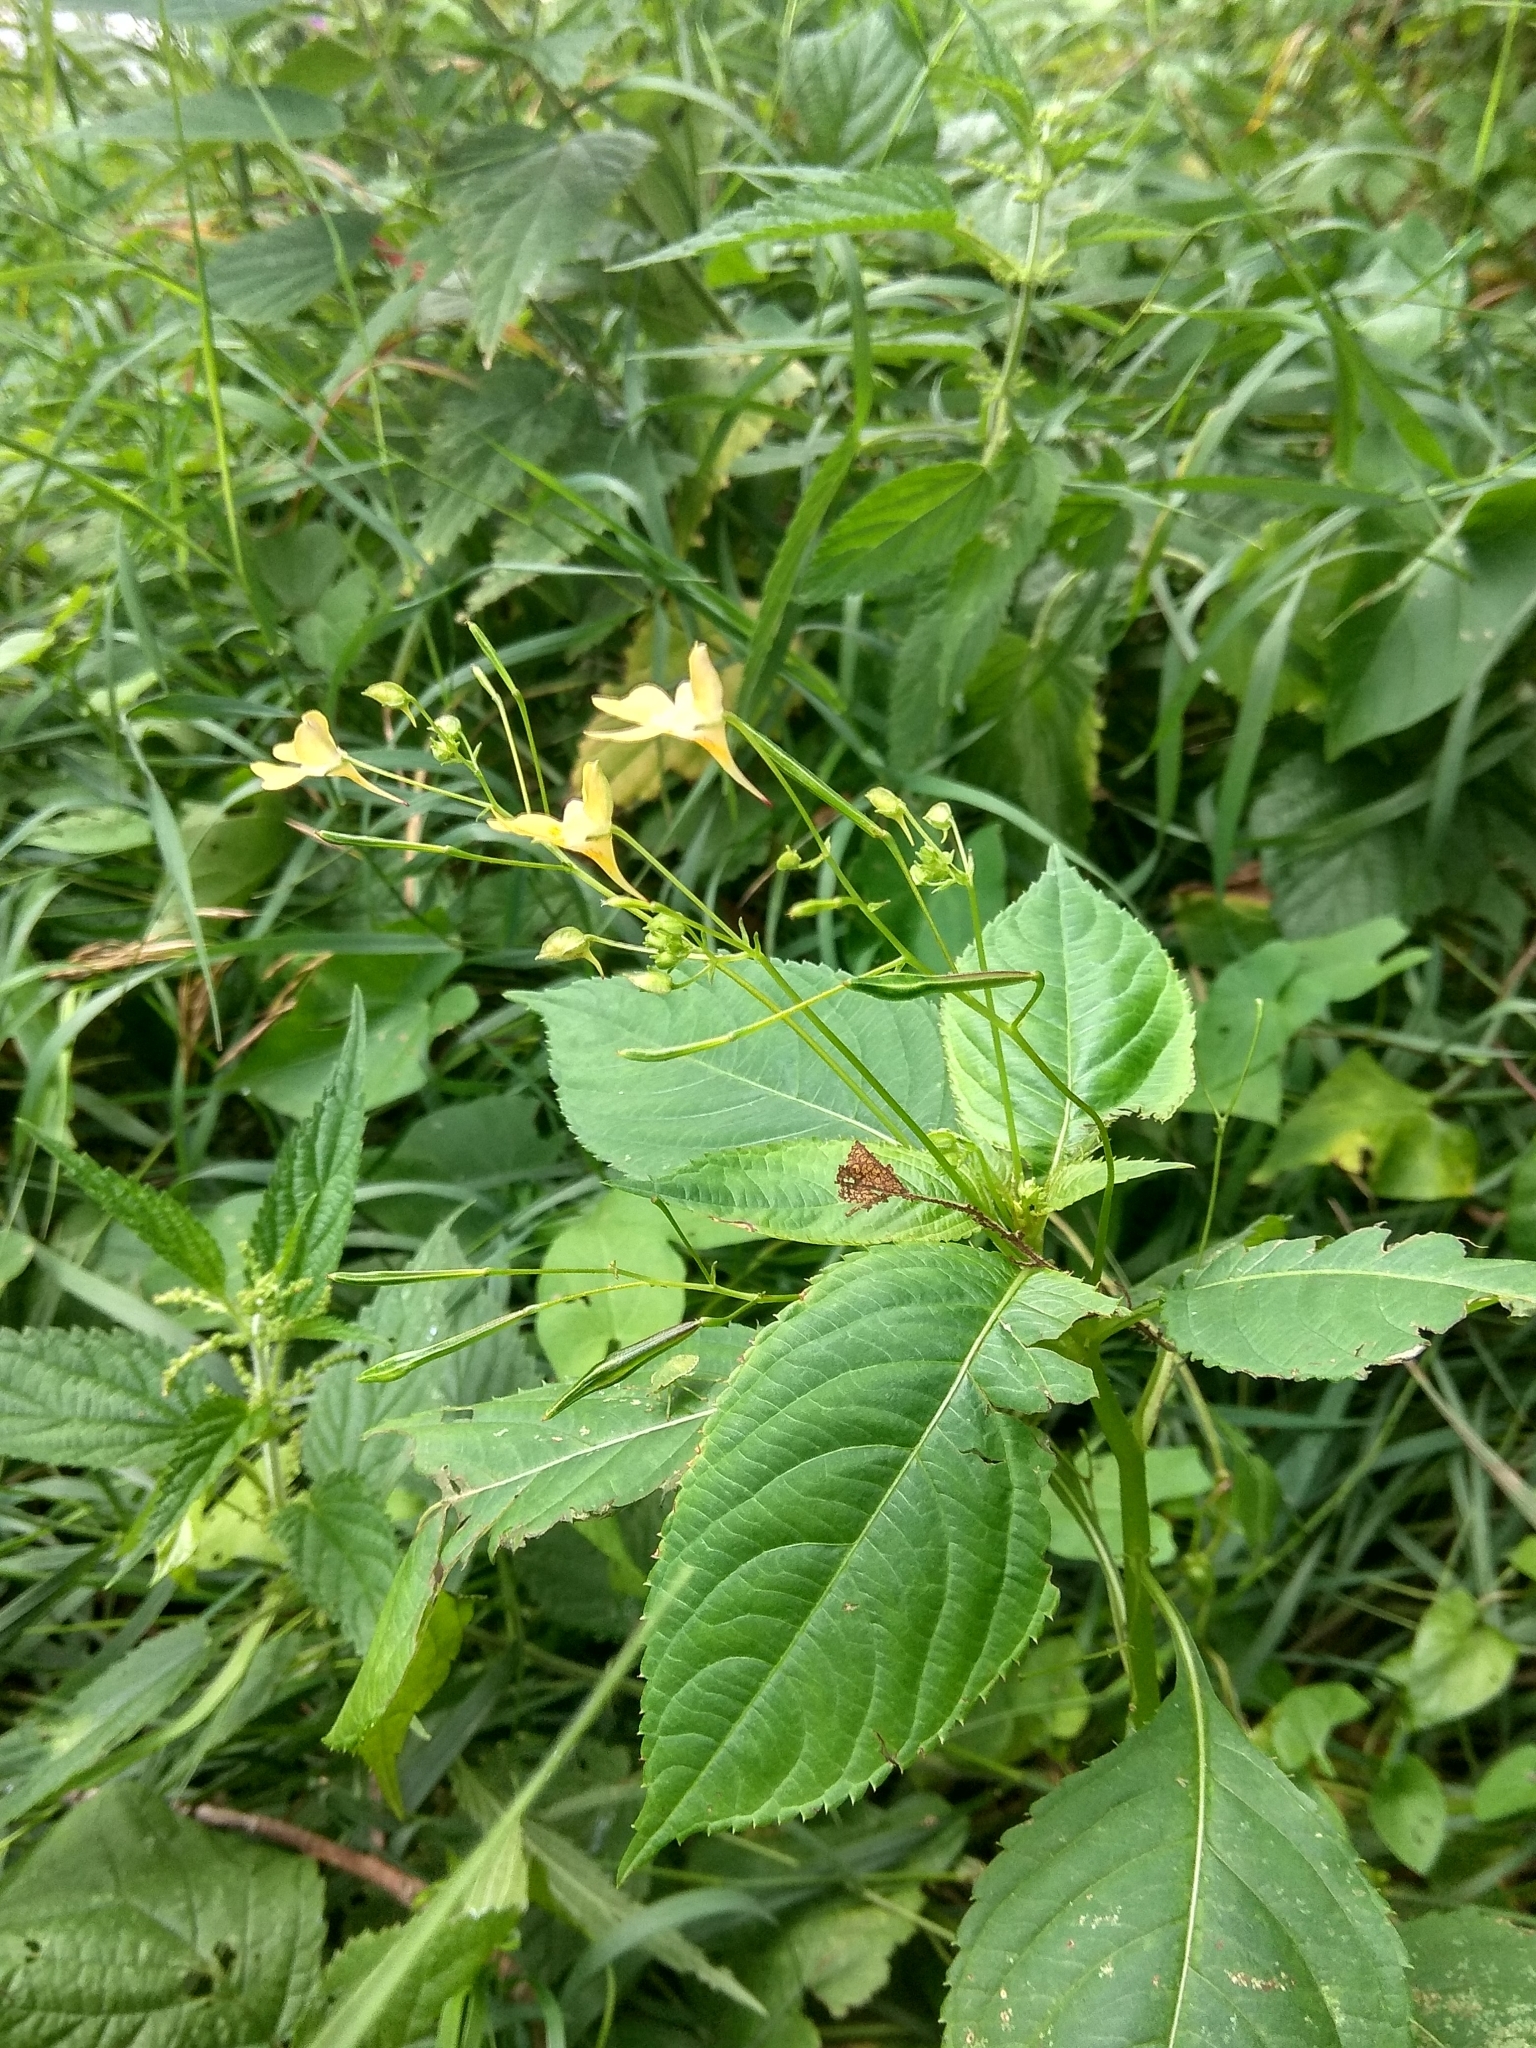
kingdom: Plantae
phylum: Tracheophyta
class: Magnoliopsida
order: Ericales
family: Balsaminaceae
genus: Impatiens
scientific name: Impatiens parviflora
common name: Small balsam
